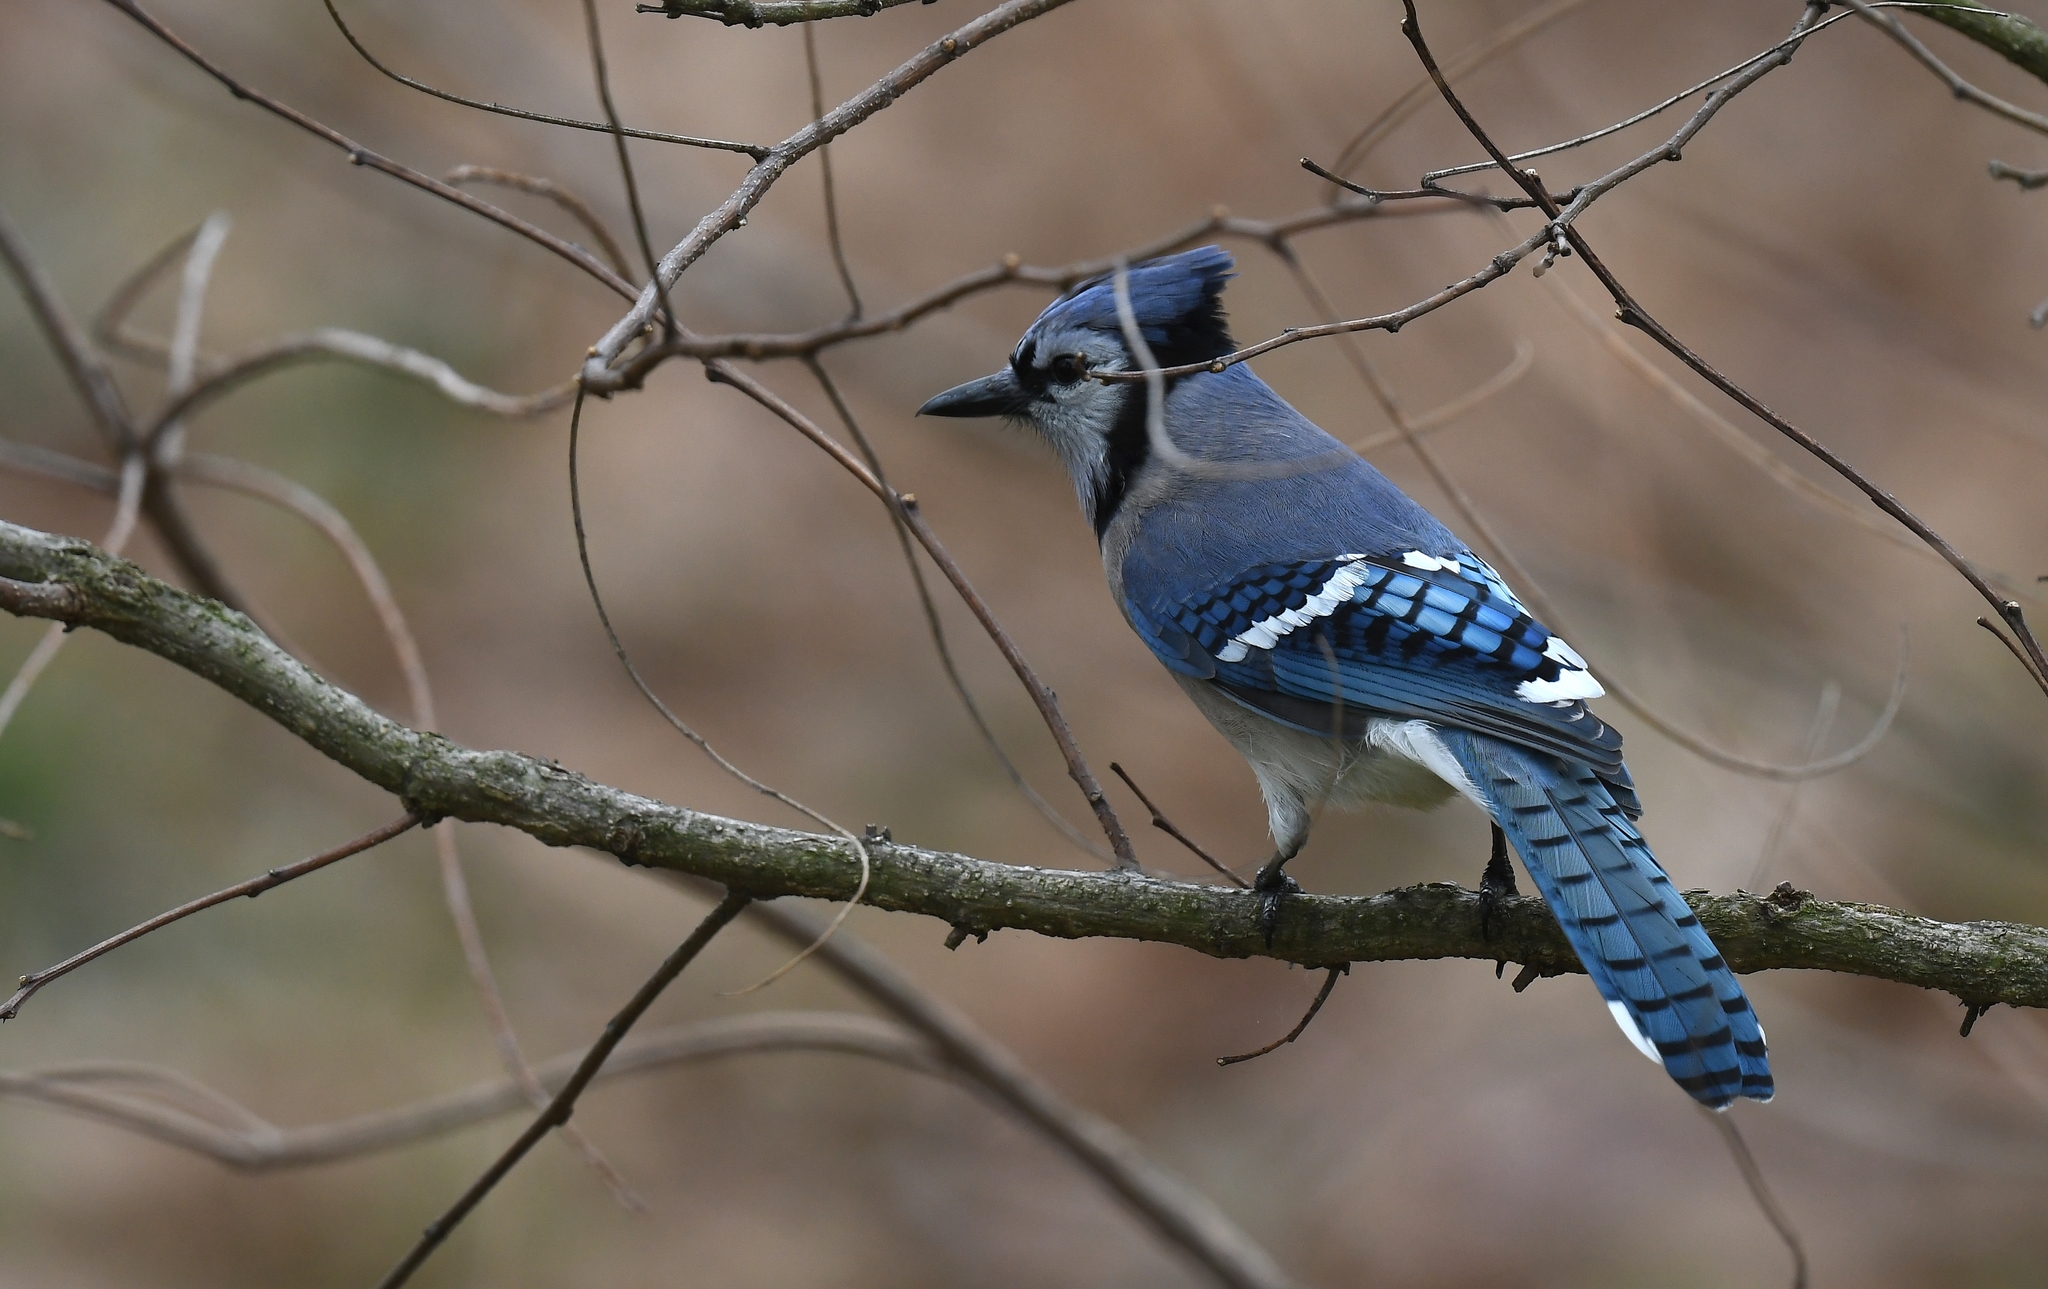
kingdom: Animalia
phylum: Chordata
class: Aves
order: Passeriformes
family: Corvidae
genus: Cyanocitta
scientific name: Cyanocitta cristata
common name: Blue jay
